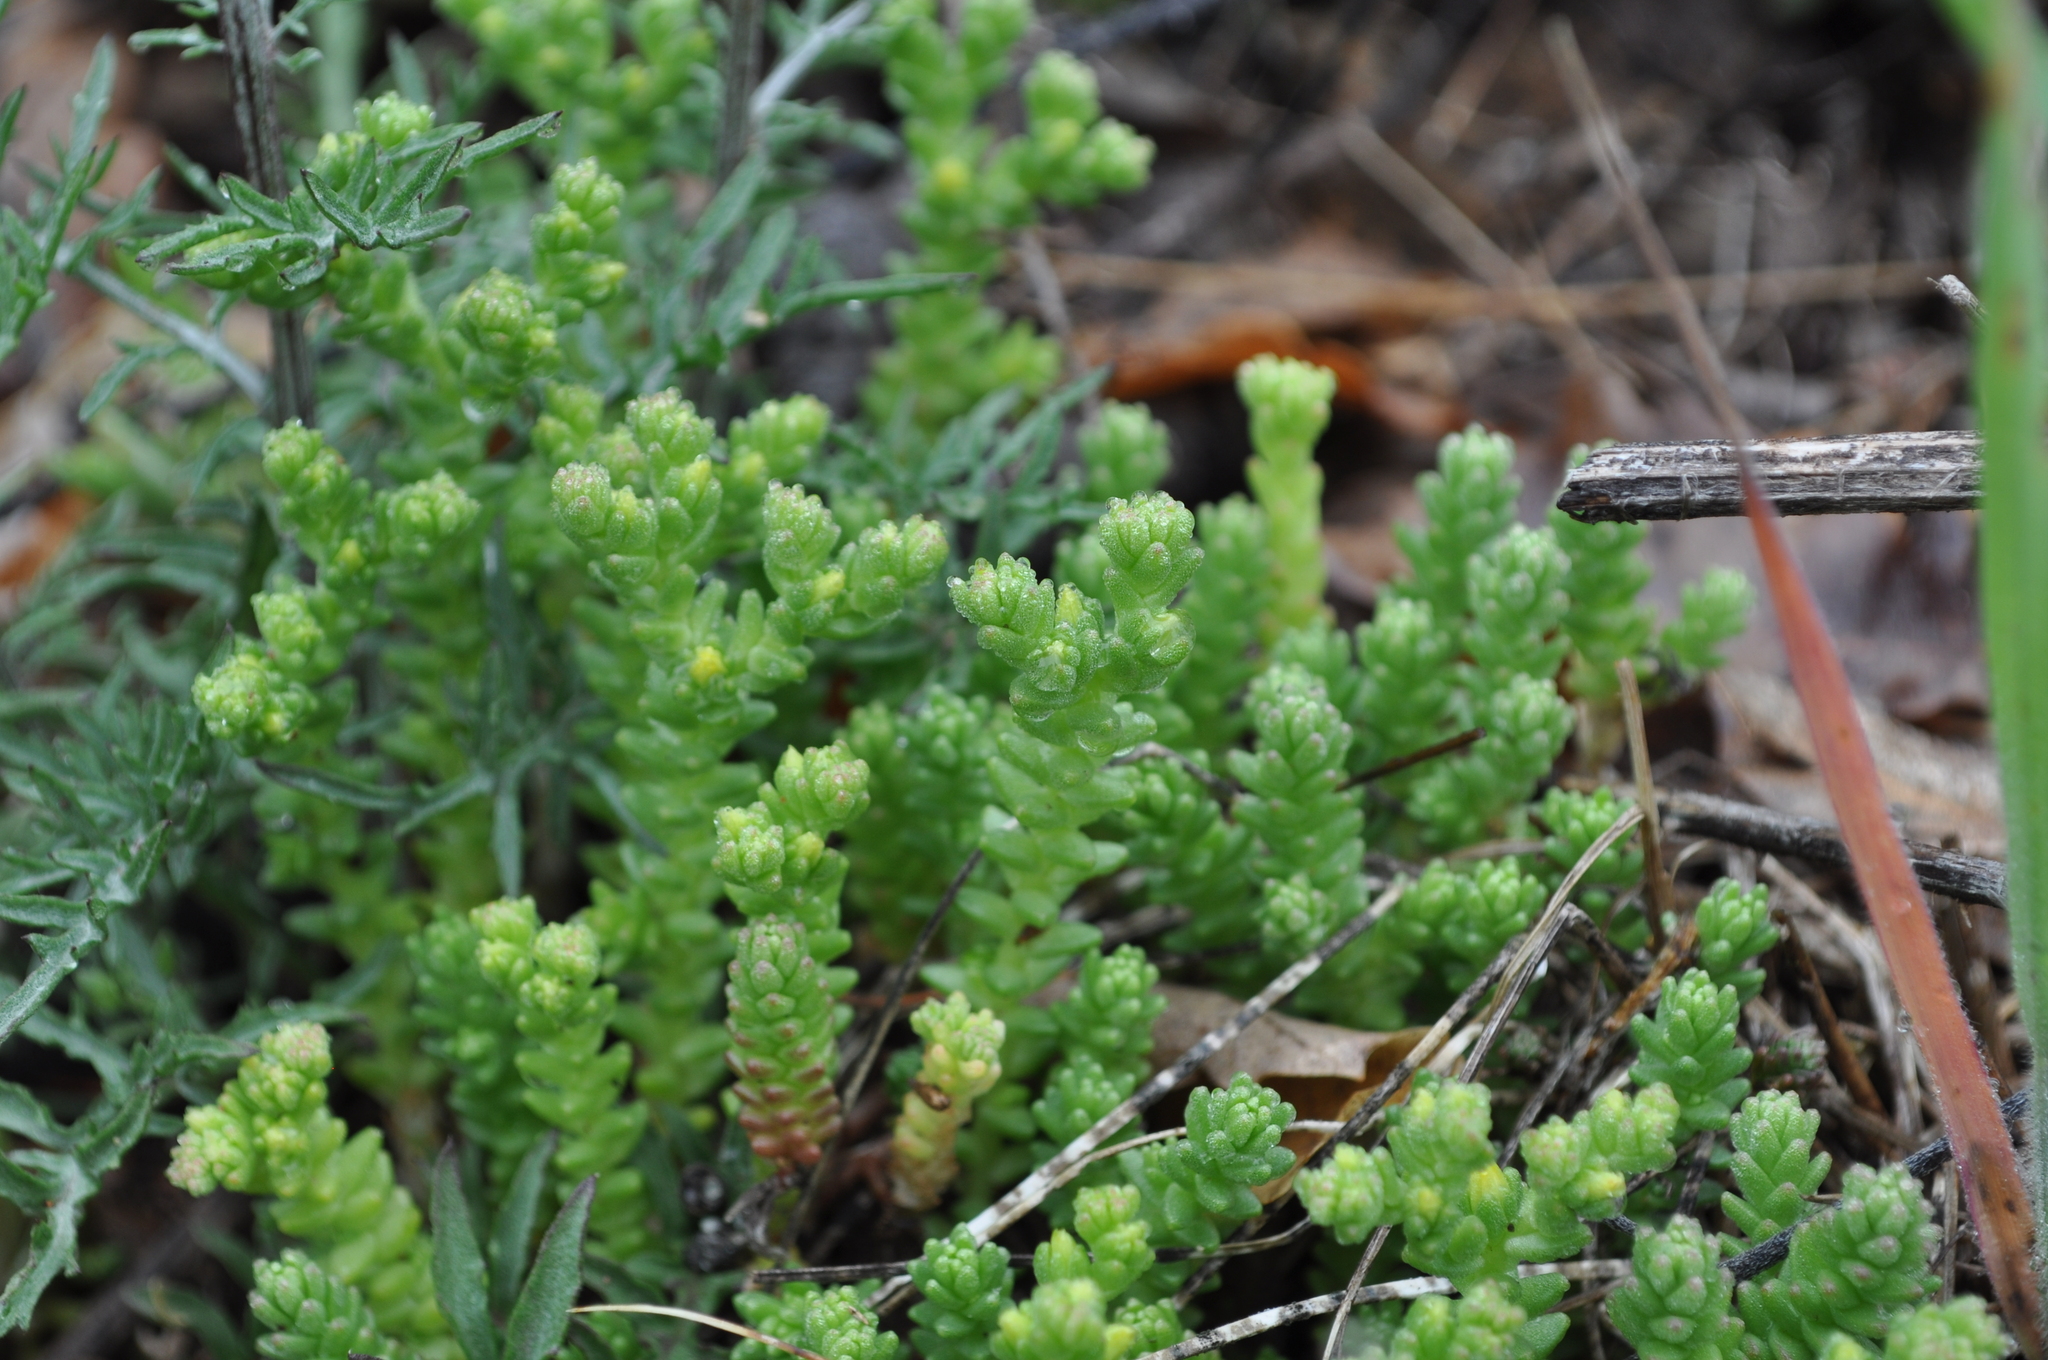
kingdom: Plantae
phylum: Tracheophyta
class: Magnoliopsida
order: Saxifragales
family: Crassulaceae
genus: Sedum
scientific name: Sedum acre
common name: Biting stonecrop
